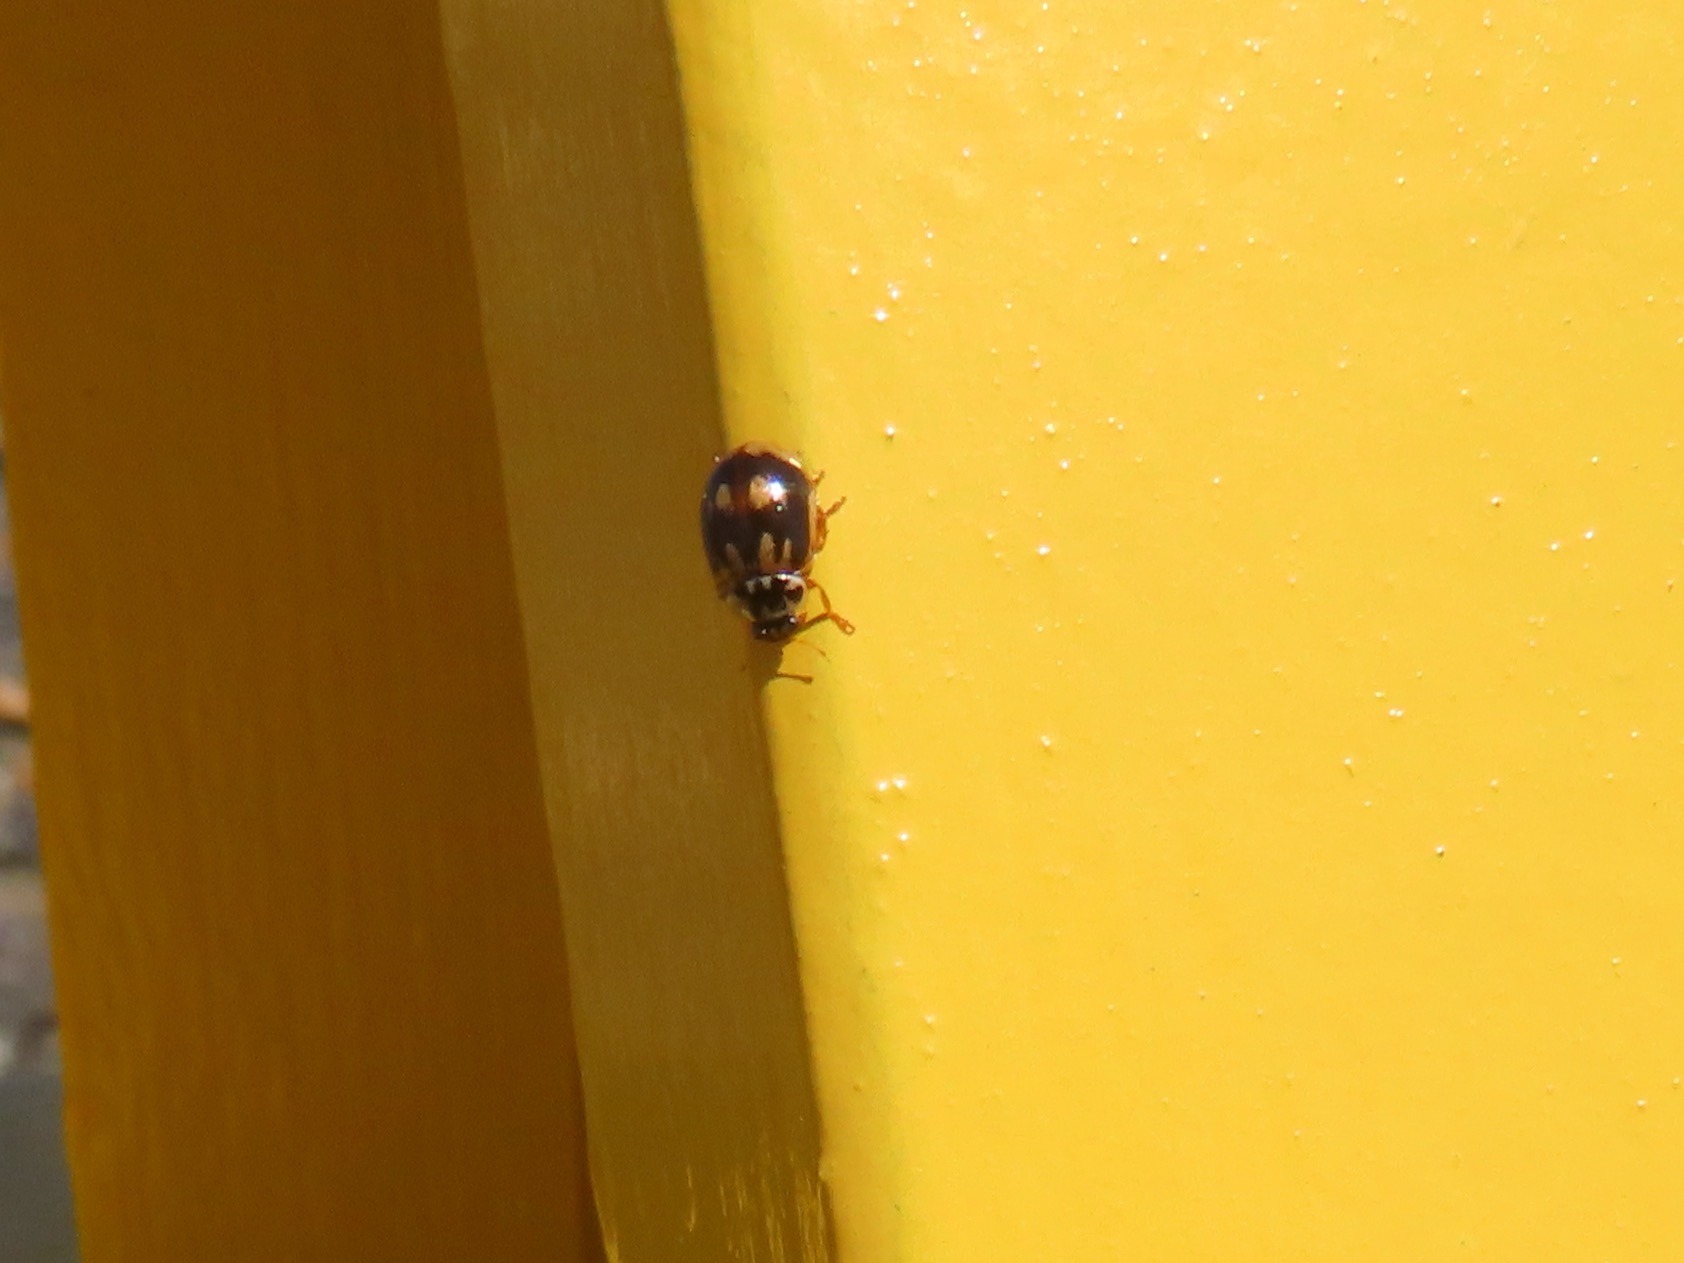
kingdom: Animalia
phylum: Arthropoda
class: Insecta
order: Coleoptera
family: Coccinellidae
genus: Mulsantina
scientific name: Mulsantina picta
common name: Painted ladybird
